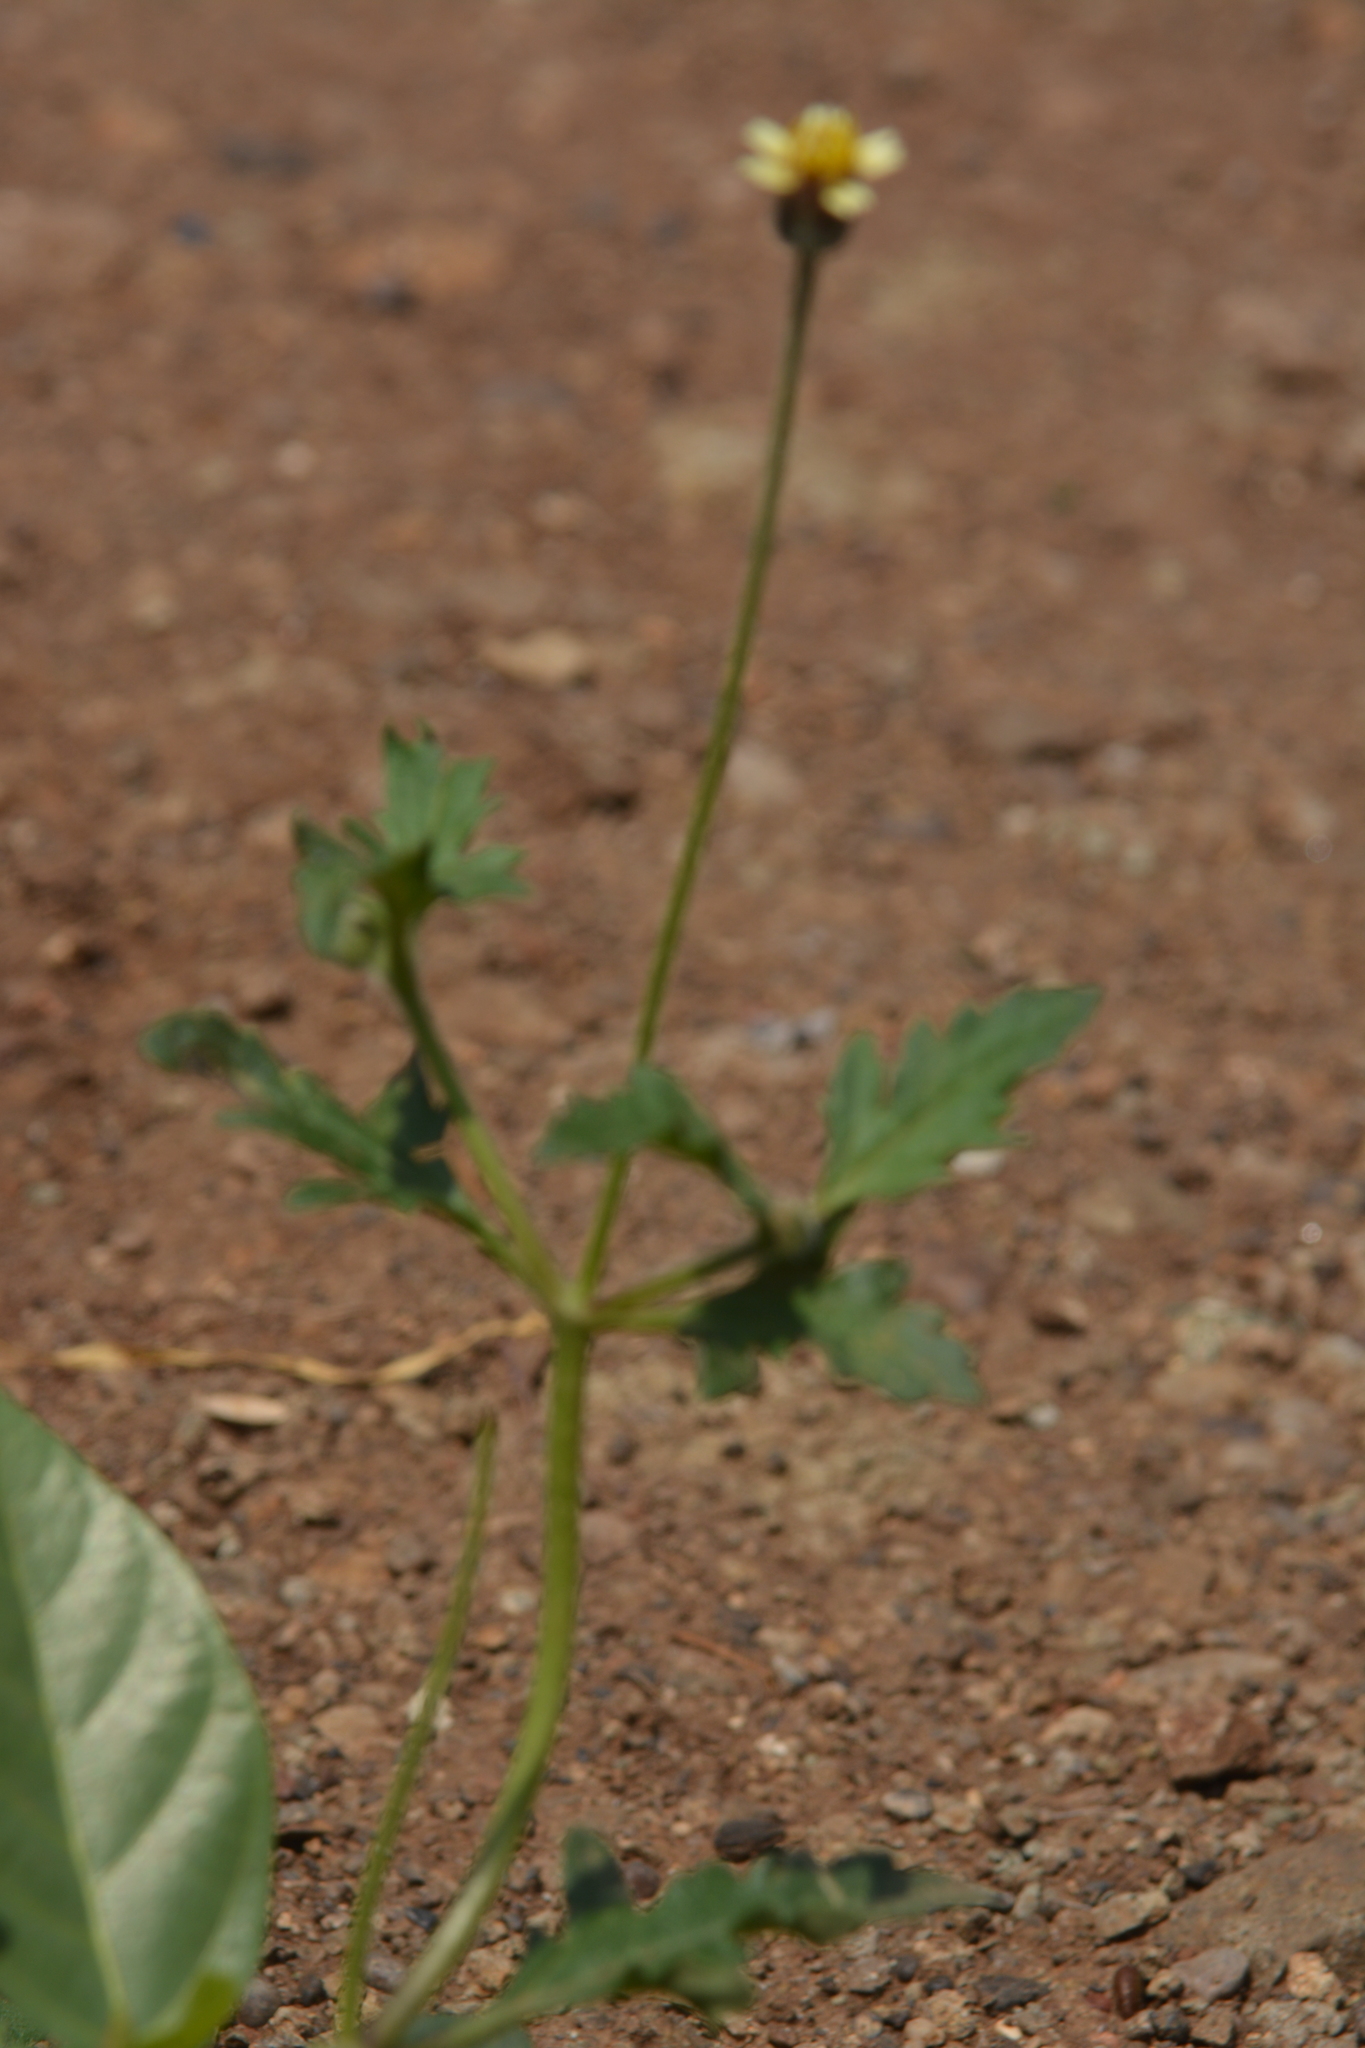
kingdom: Plantae
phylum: Tracheophyta
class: Magnoliopsida
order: Asterales
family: Asteraceae
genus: Tridax
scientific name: Tridax procumbens
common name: Coatbuttons
